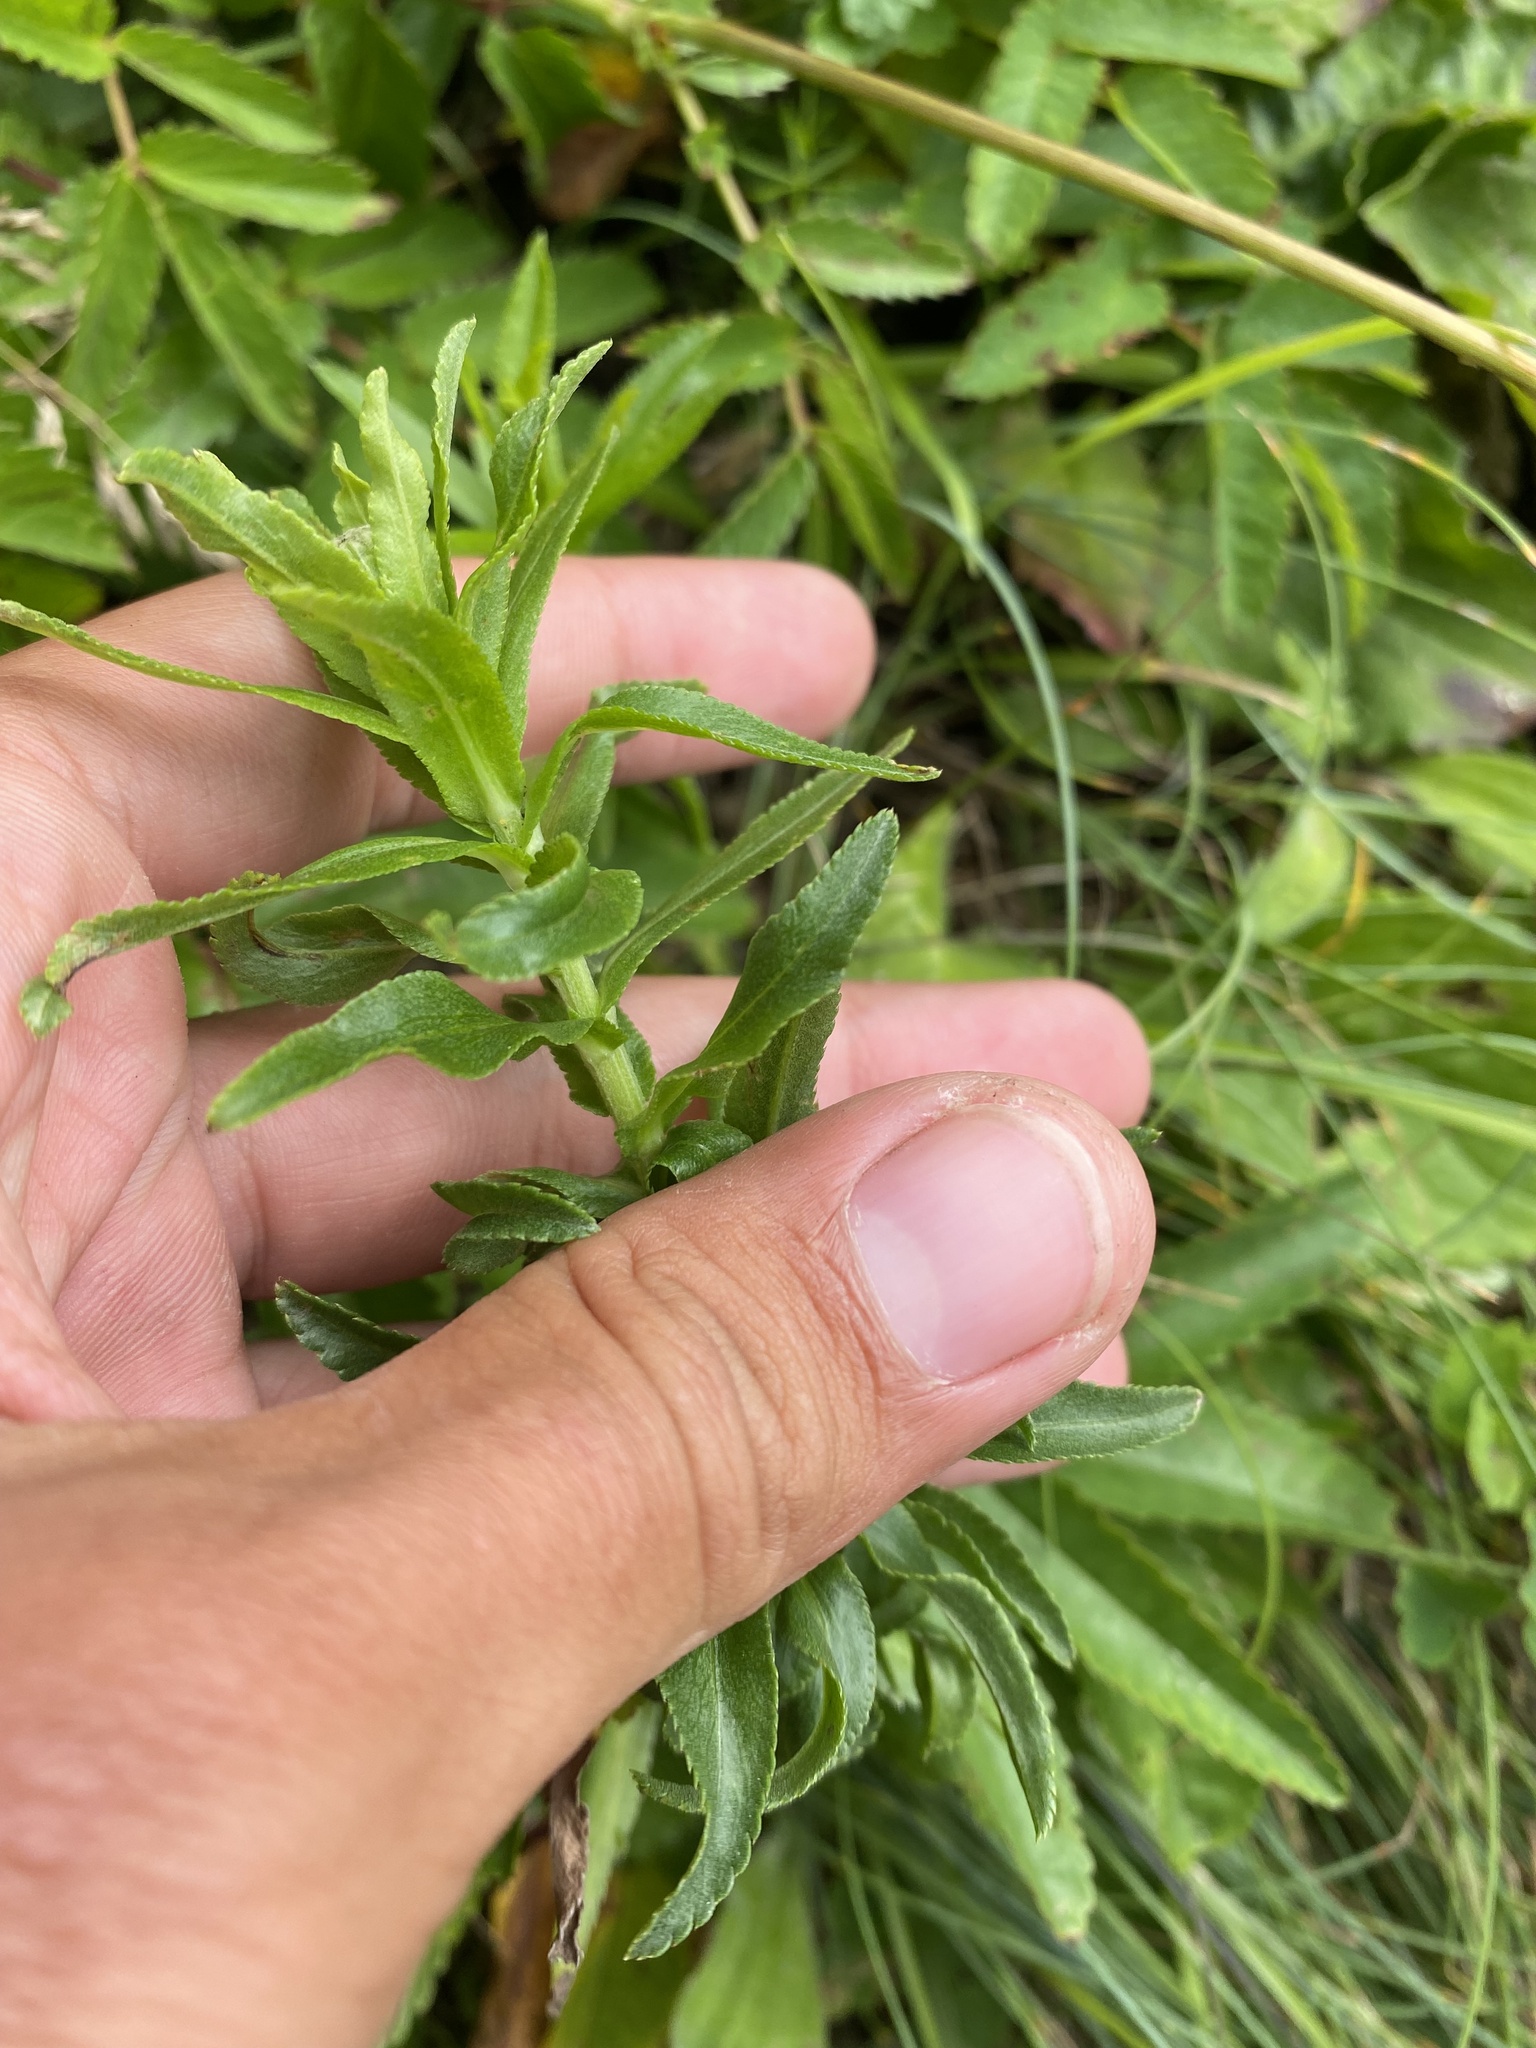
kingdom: Plantae
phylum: Tracheophyta
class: Magnoliopsida
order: Asterales
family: Asteraceae
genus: Achillea
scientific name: Achillea ptarmica
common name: Sneezeweed
